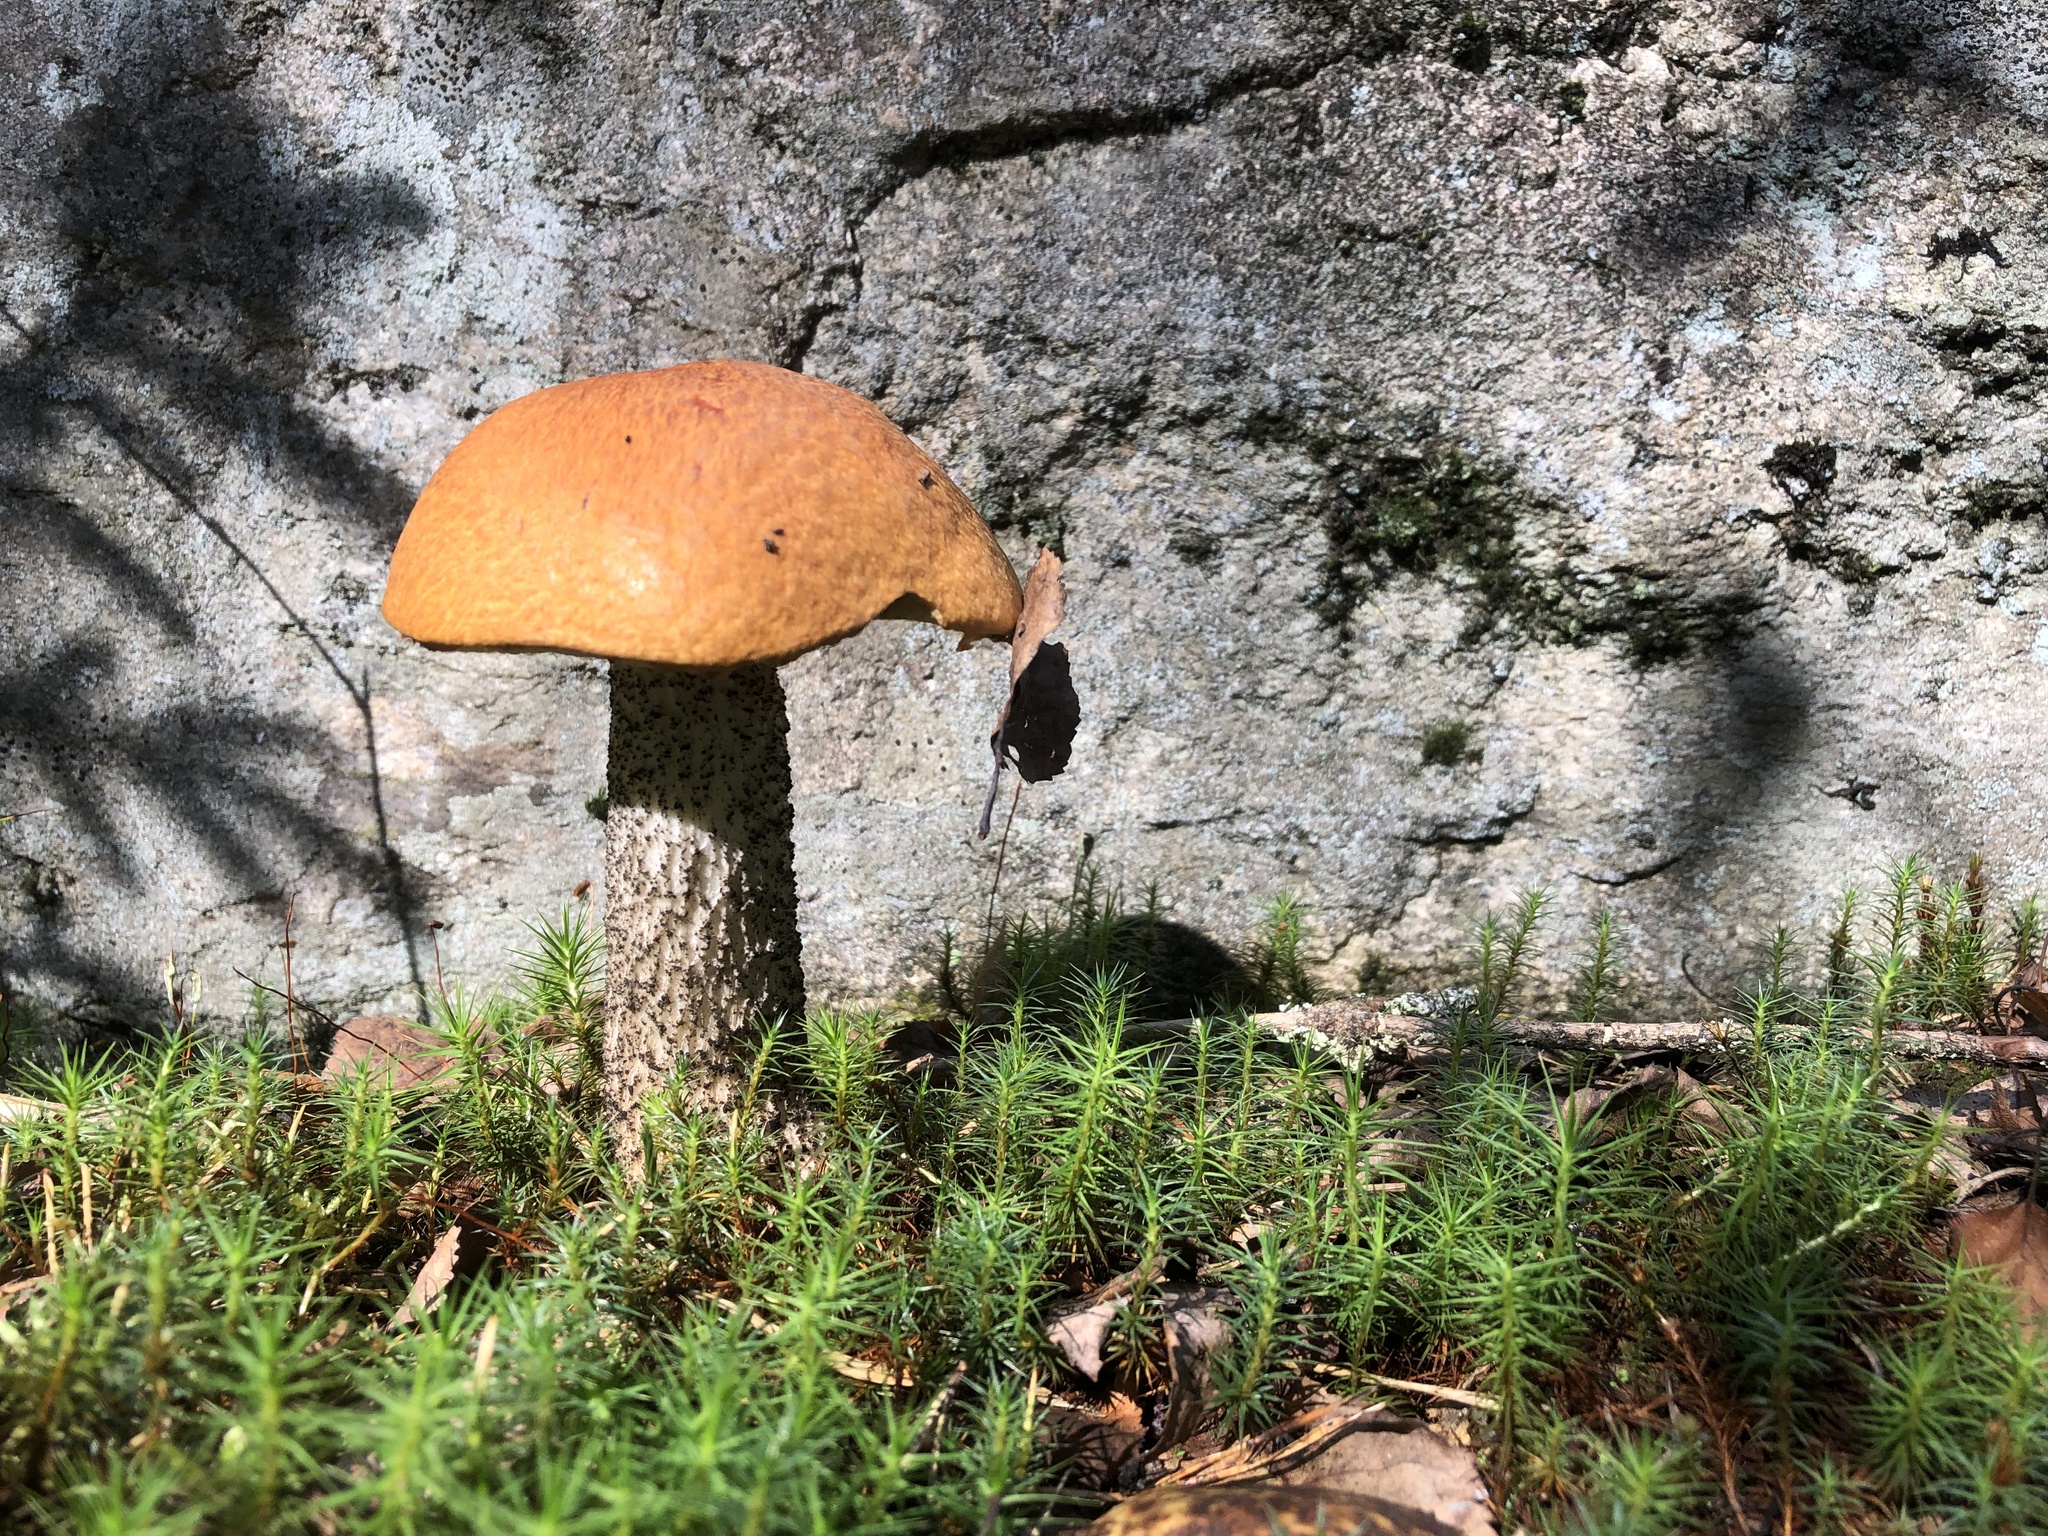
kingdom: Fungi
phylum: Basidiomycota
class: Agaricomycetes
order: Boletales
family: Boletaceae
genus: Leccinum
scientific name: Leccinum versipelle
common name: Orange birch bolete
